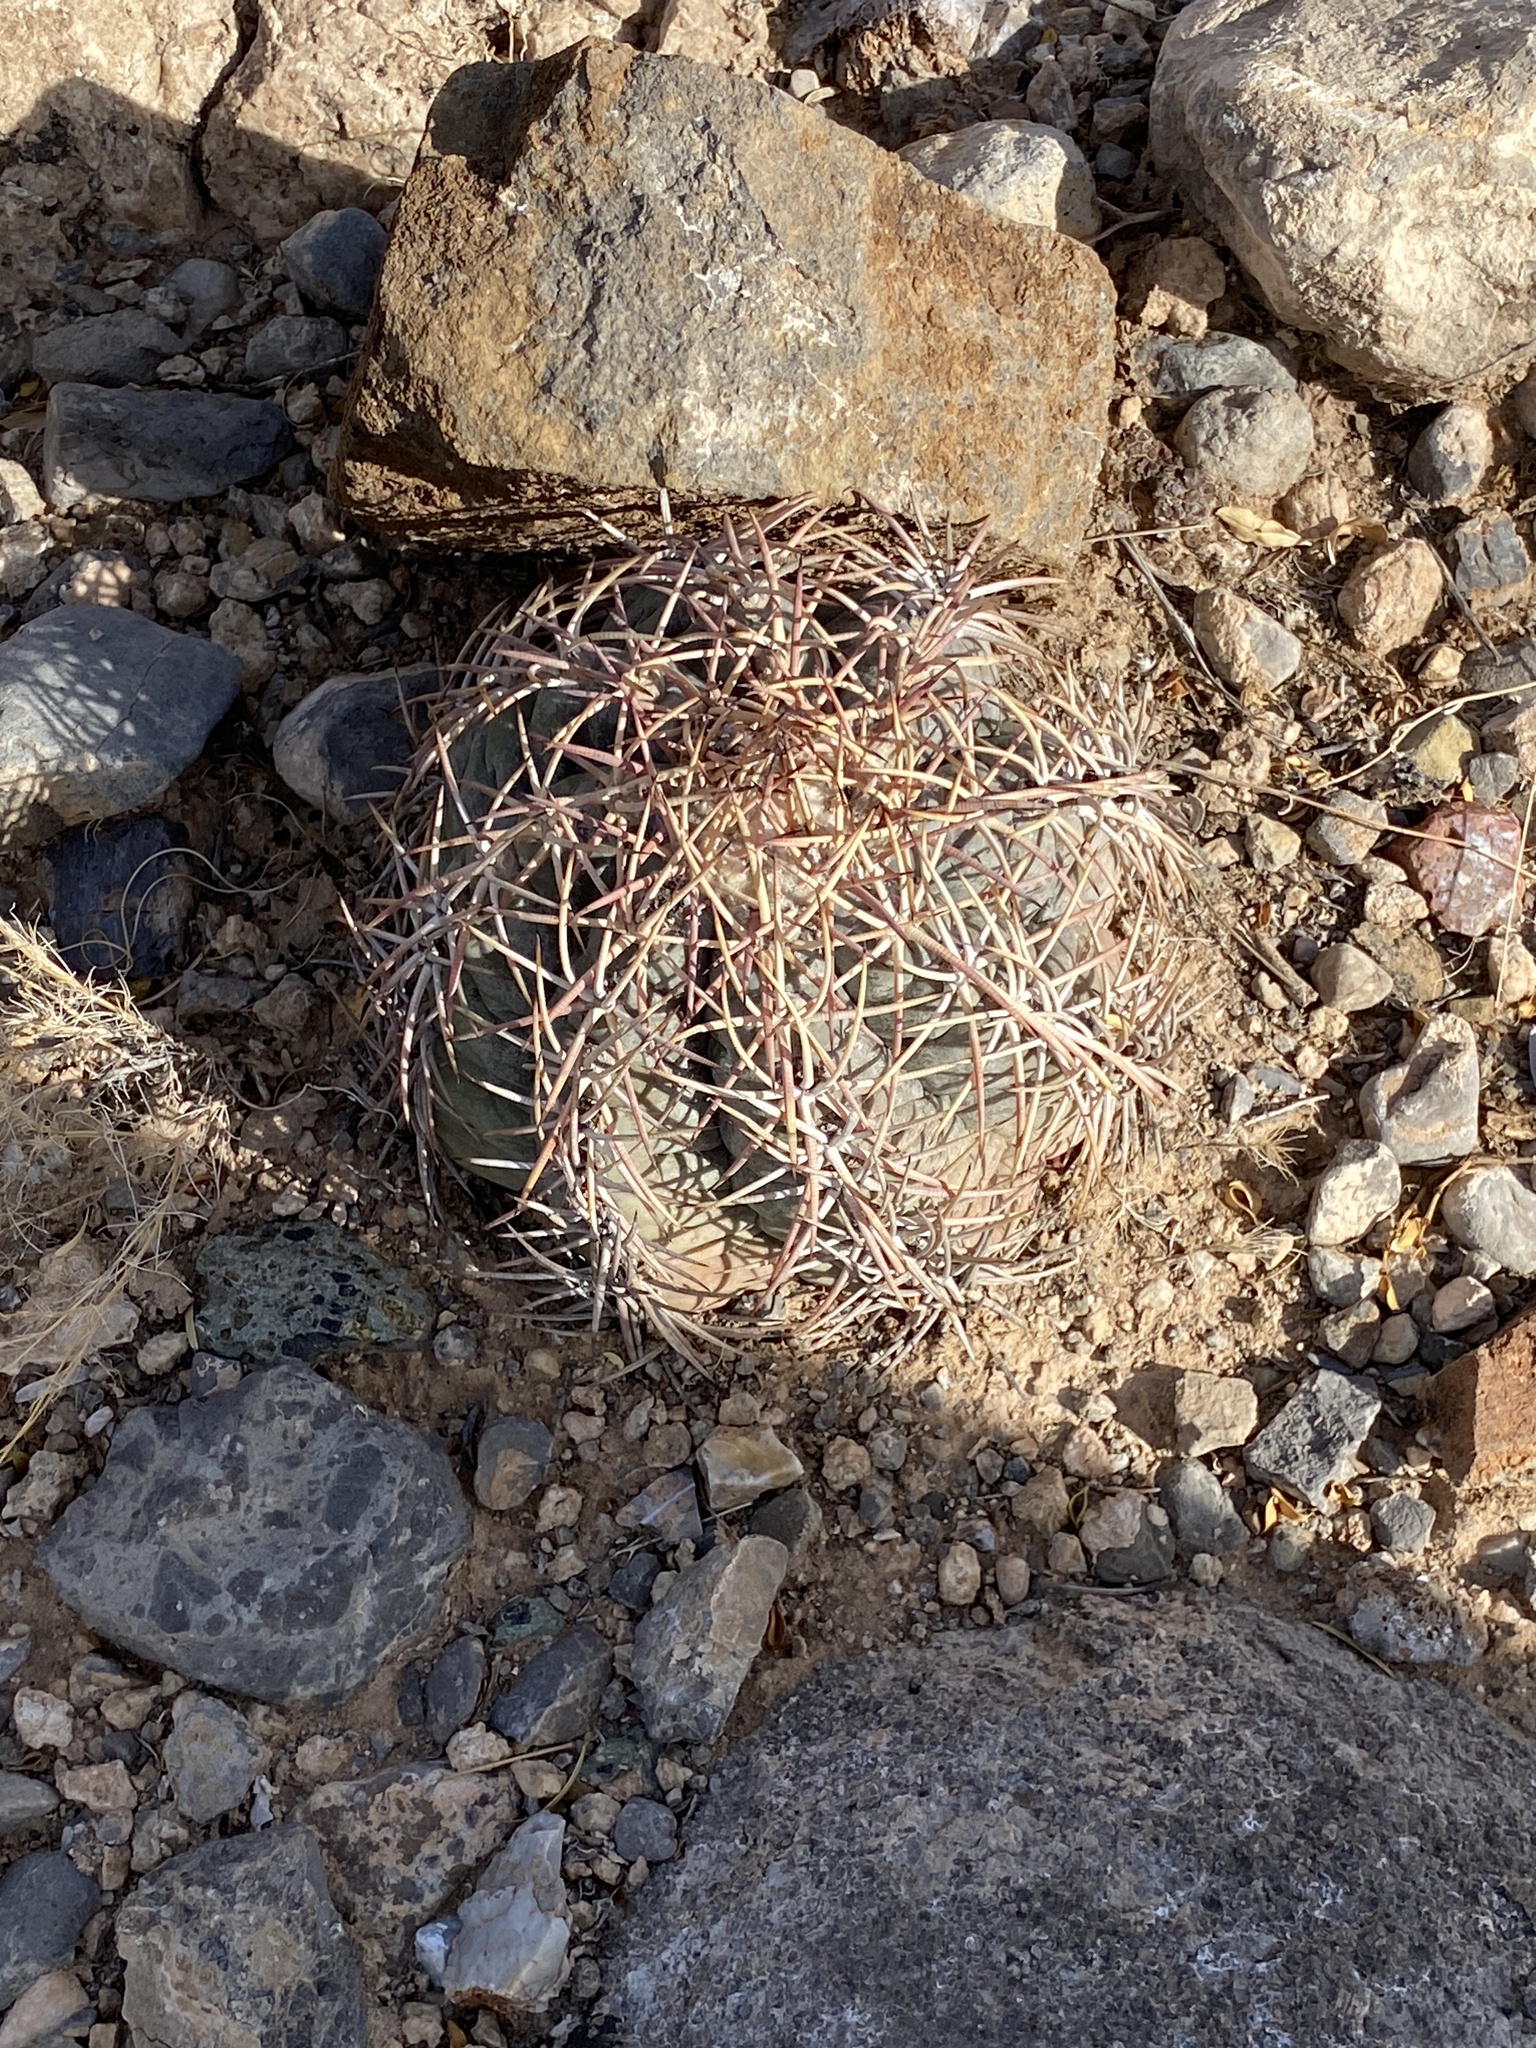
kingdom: Plantae
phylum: Tracheophyta
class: Magnoliopsida
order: Caryophyllales
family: Cactaceae
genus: Echinocactus
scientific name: Echinocactus horizonthalonius
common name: Devilshead
